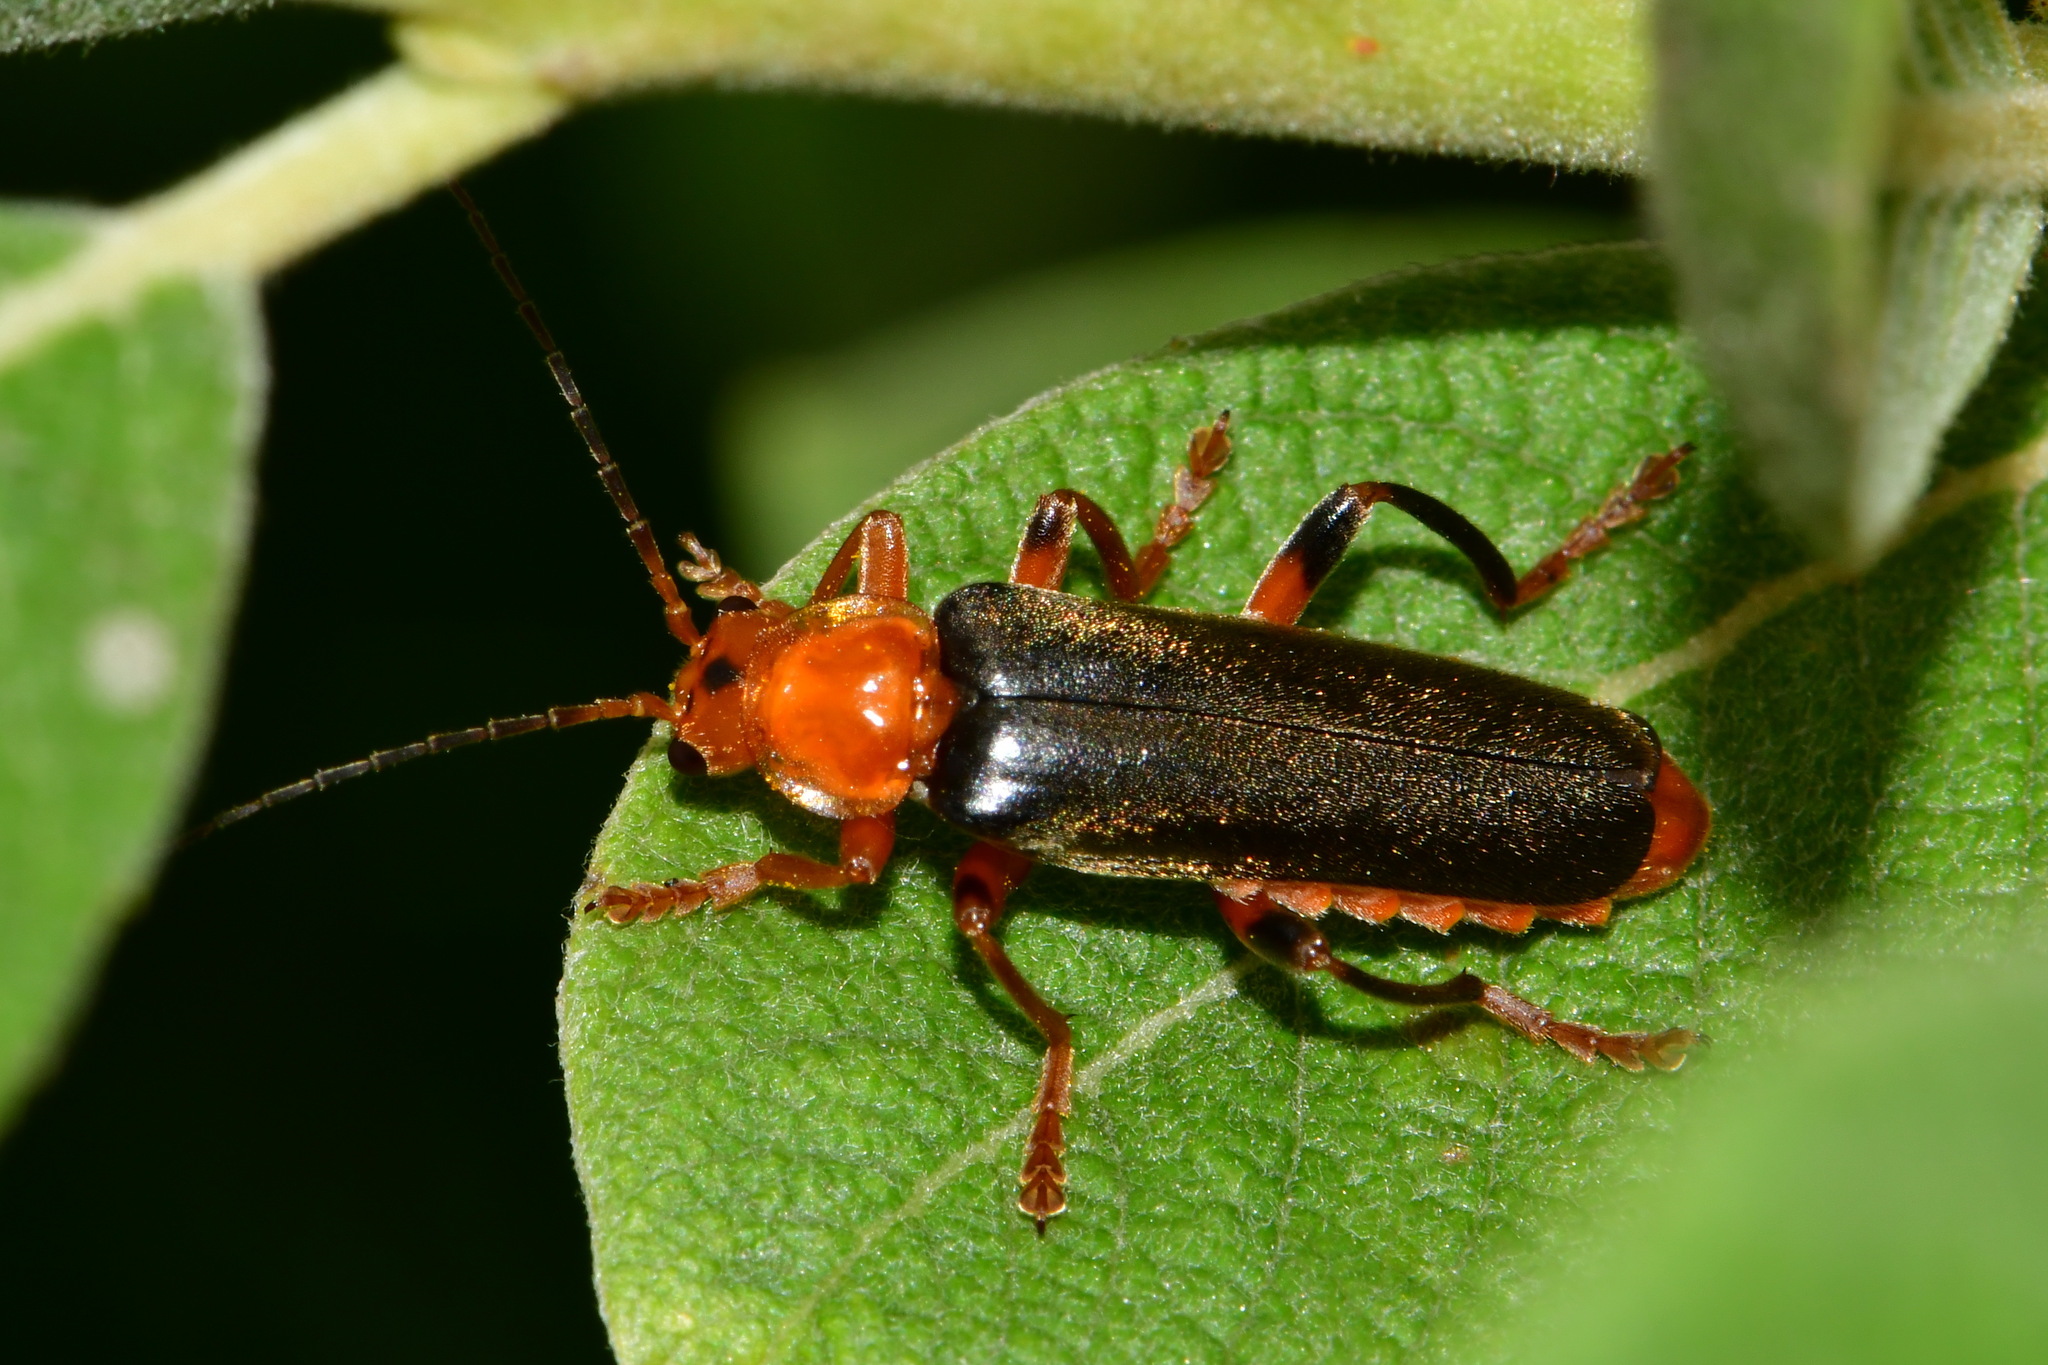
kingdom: Animalia
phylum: Arthropoda
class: Insecta
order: Coleoptera
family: Cantharidae
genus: Cantharis
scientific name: Cantharis livida
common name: Livid soldier beetle
